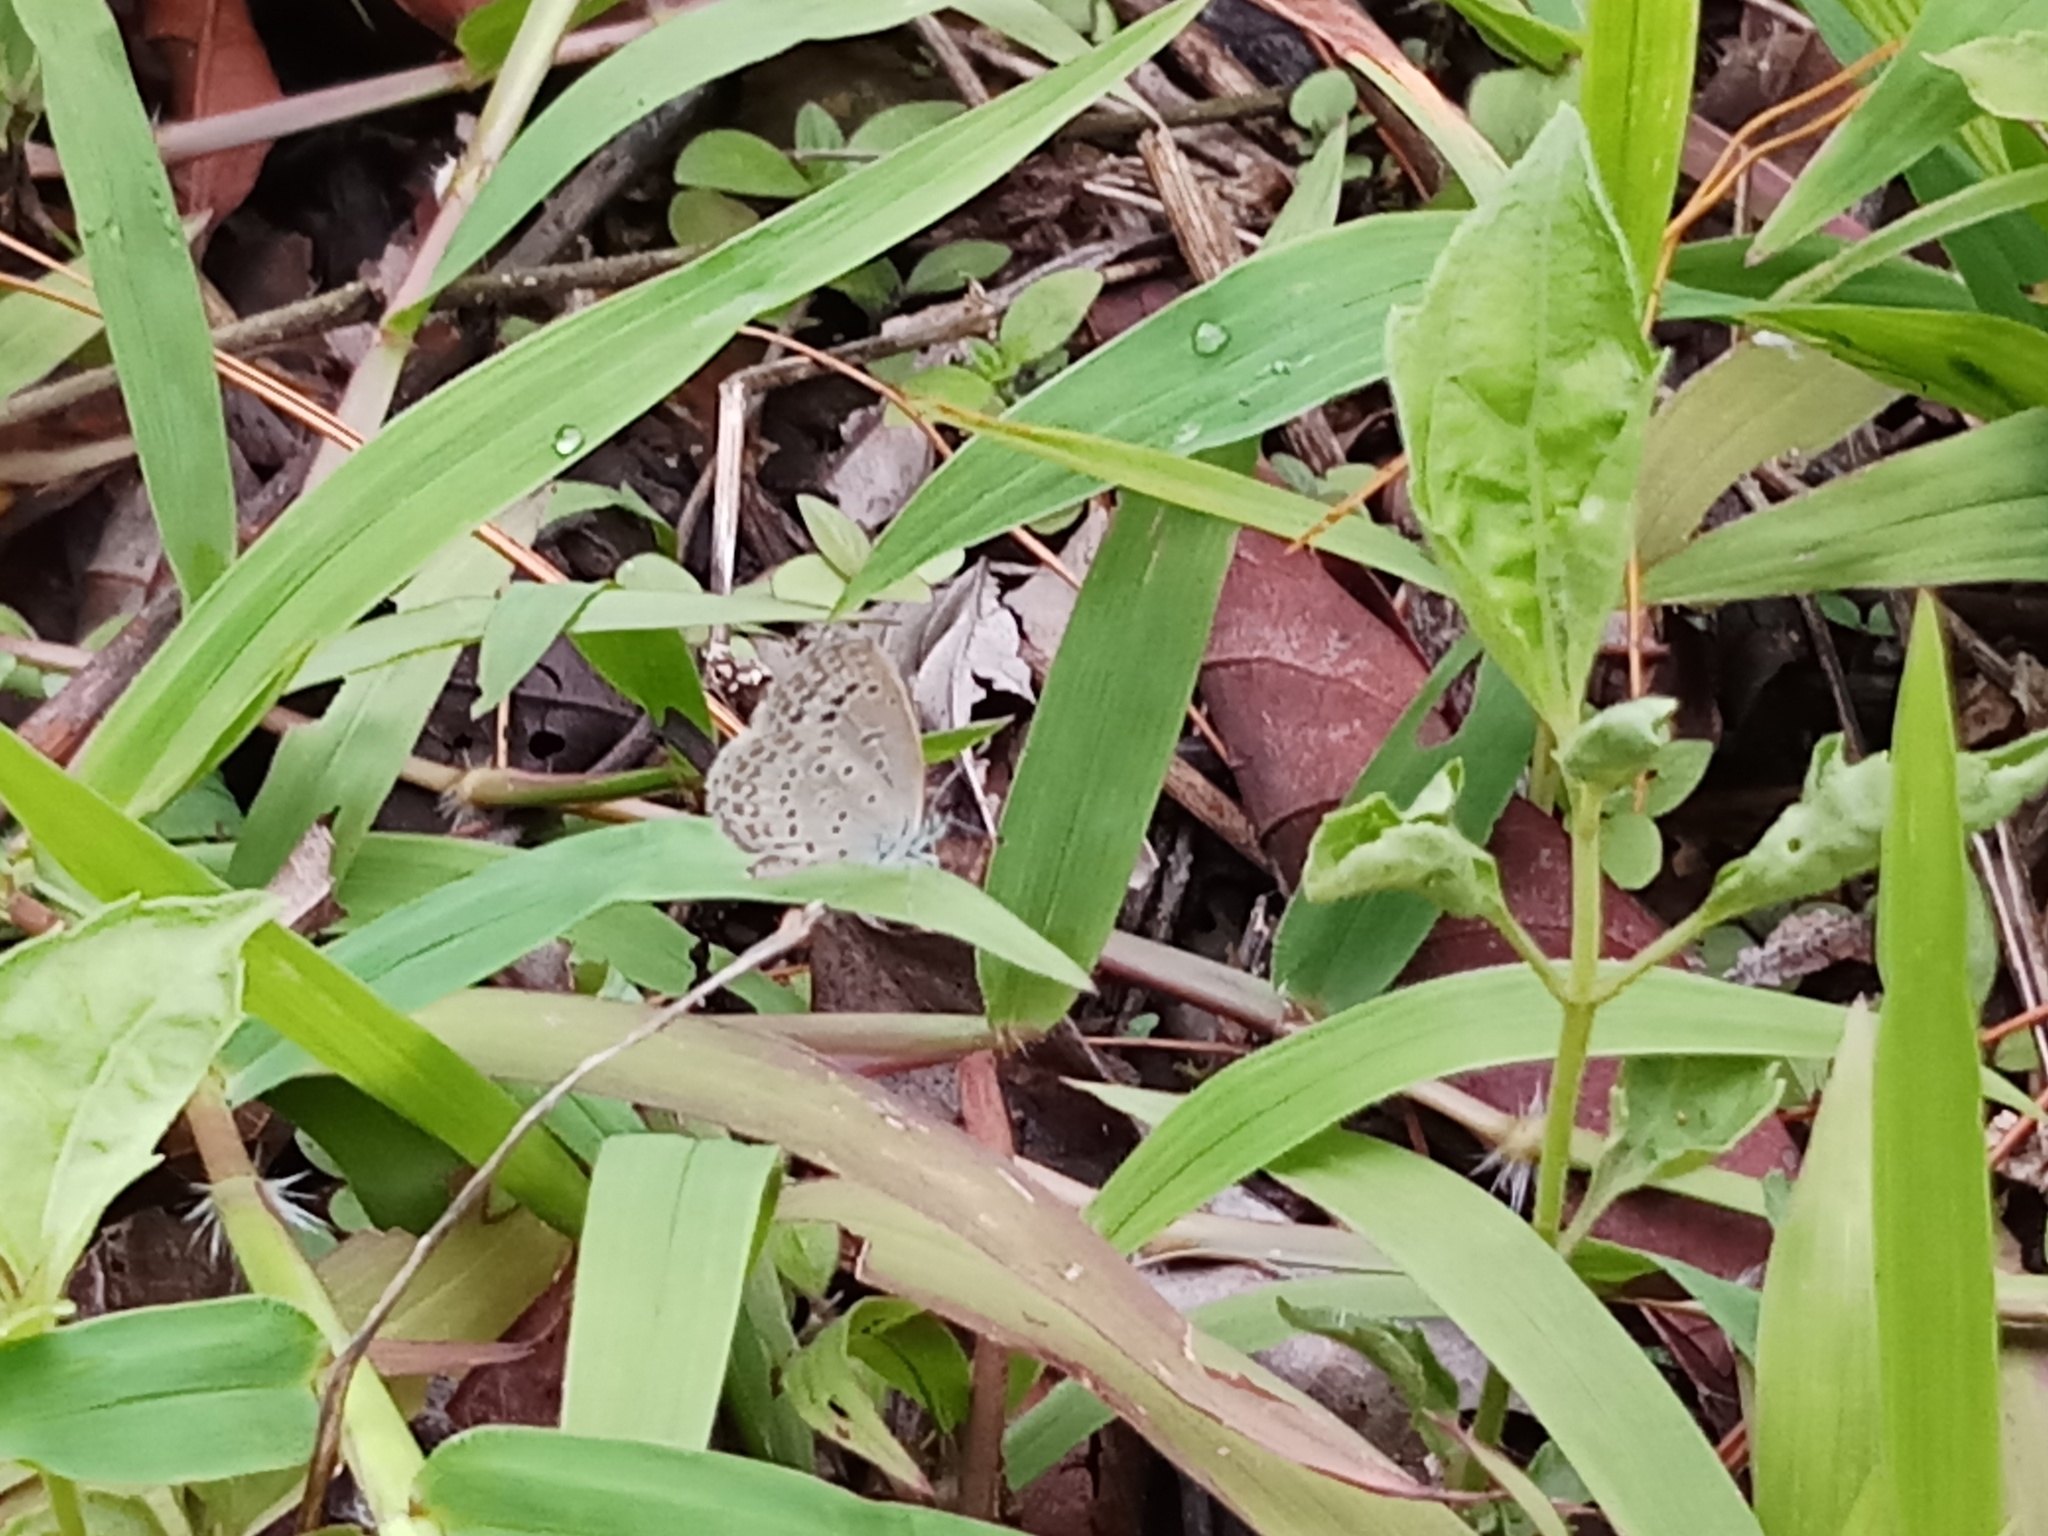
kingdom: Animalia
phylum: Arthropoda
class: Insecta
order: Lepidoptera
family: Lycaenidae
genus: Pseudozizeeria
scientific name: Pseudozizeeria maha
